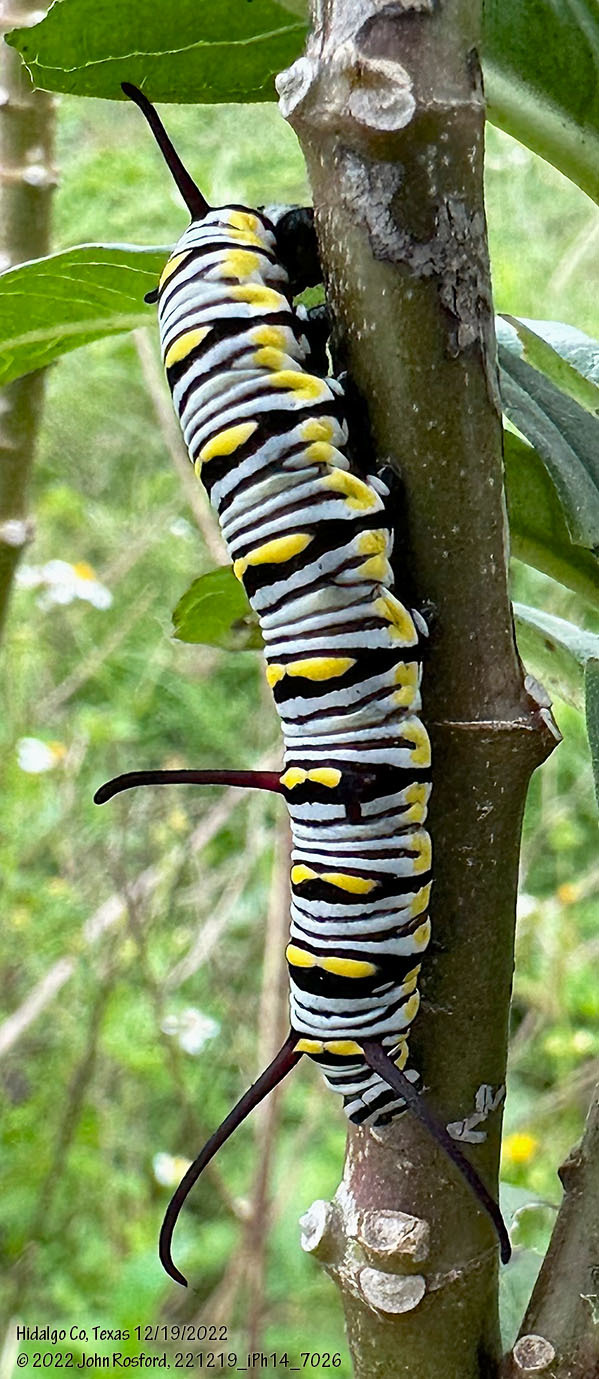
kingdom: Animalia
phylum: Arthropoda
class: Insecta
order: Lepidoptera
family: Nymphalidae
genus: Danaus
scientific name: Danaus gilippus
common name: Queen
